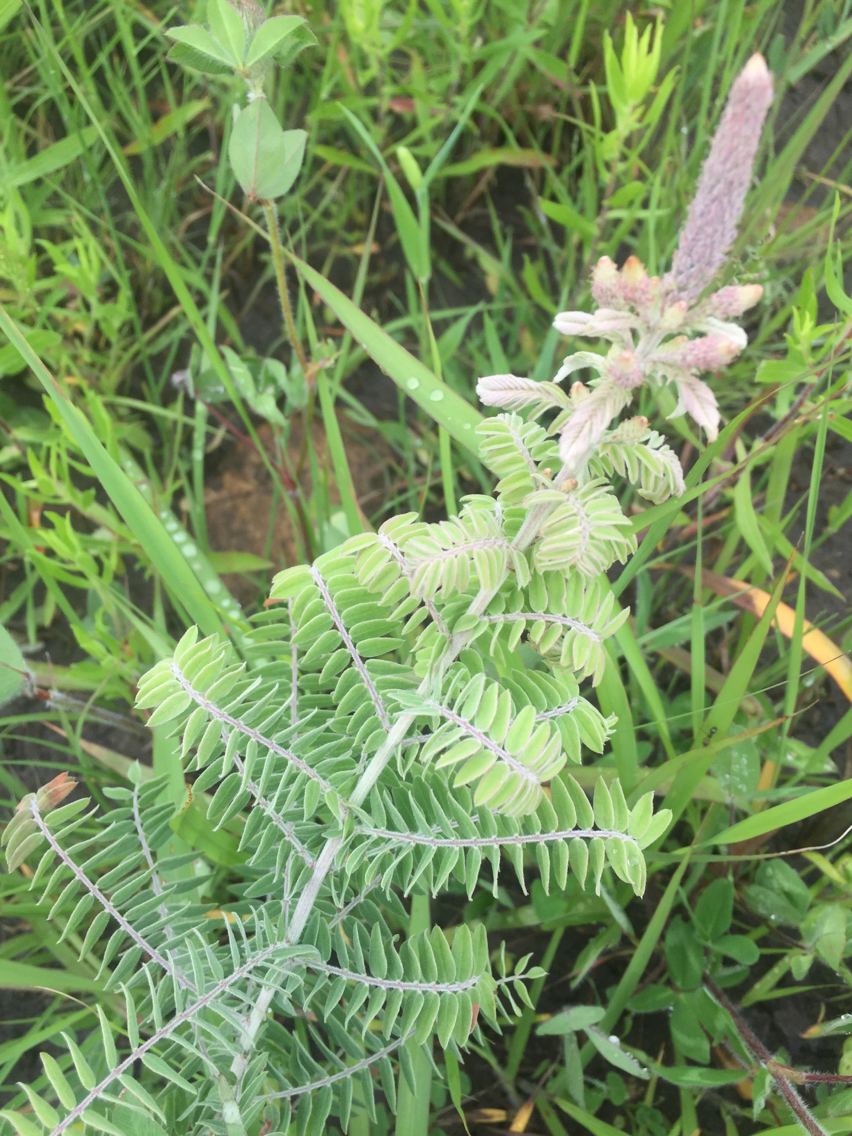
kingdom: Plantae
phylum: Tracheophyta
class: Magnoliopsida
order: Fabales
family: Fabaceae
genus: Amorpha
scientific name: Amorpha canescens
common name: Leadplant
